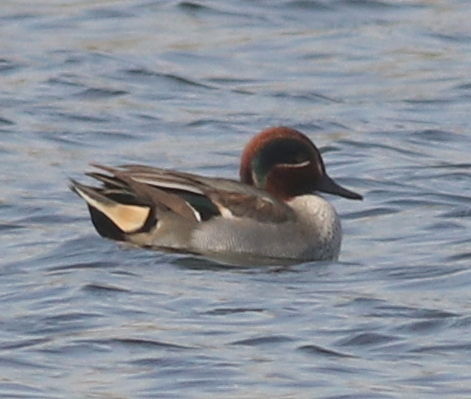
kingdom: Animalia
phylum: Chordata
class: Aves
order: Anseriformes
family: Anatidae
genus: Anas
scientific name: Anas crecca
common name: Eurasian teal
